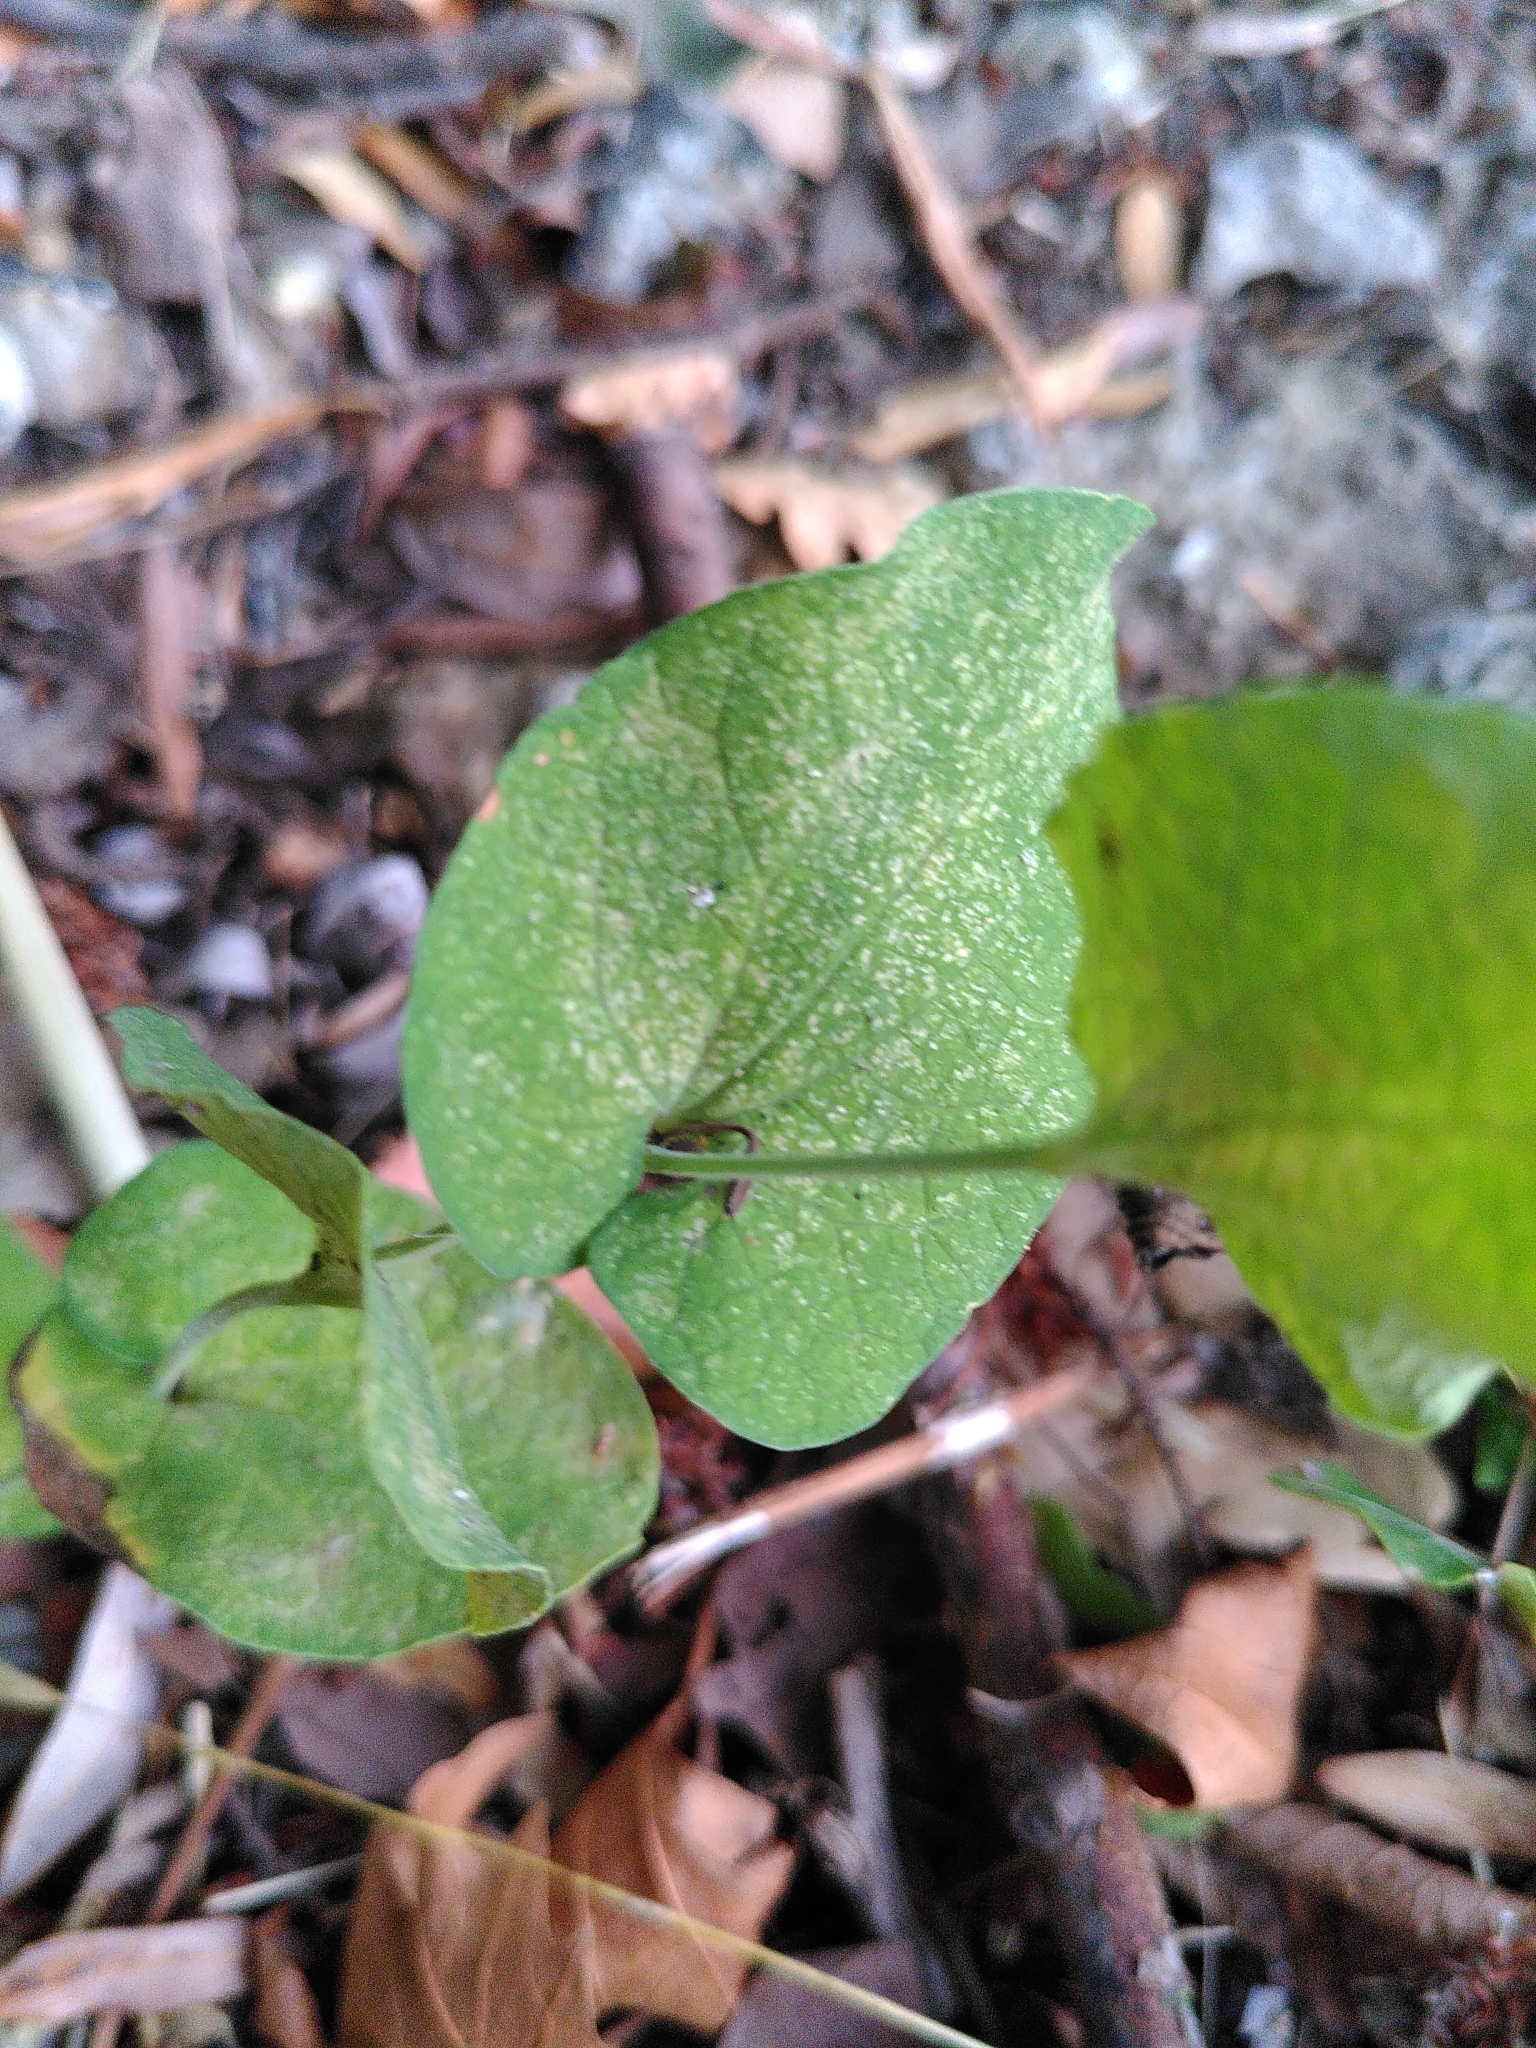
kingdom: Plantae
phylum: Tracheophyta
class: Magnoliopsida
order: Piperales
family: Aristolochiaceae
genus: Aristolochia
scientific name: Aristolochia rotunda
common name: Smearwort
